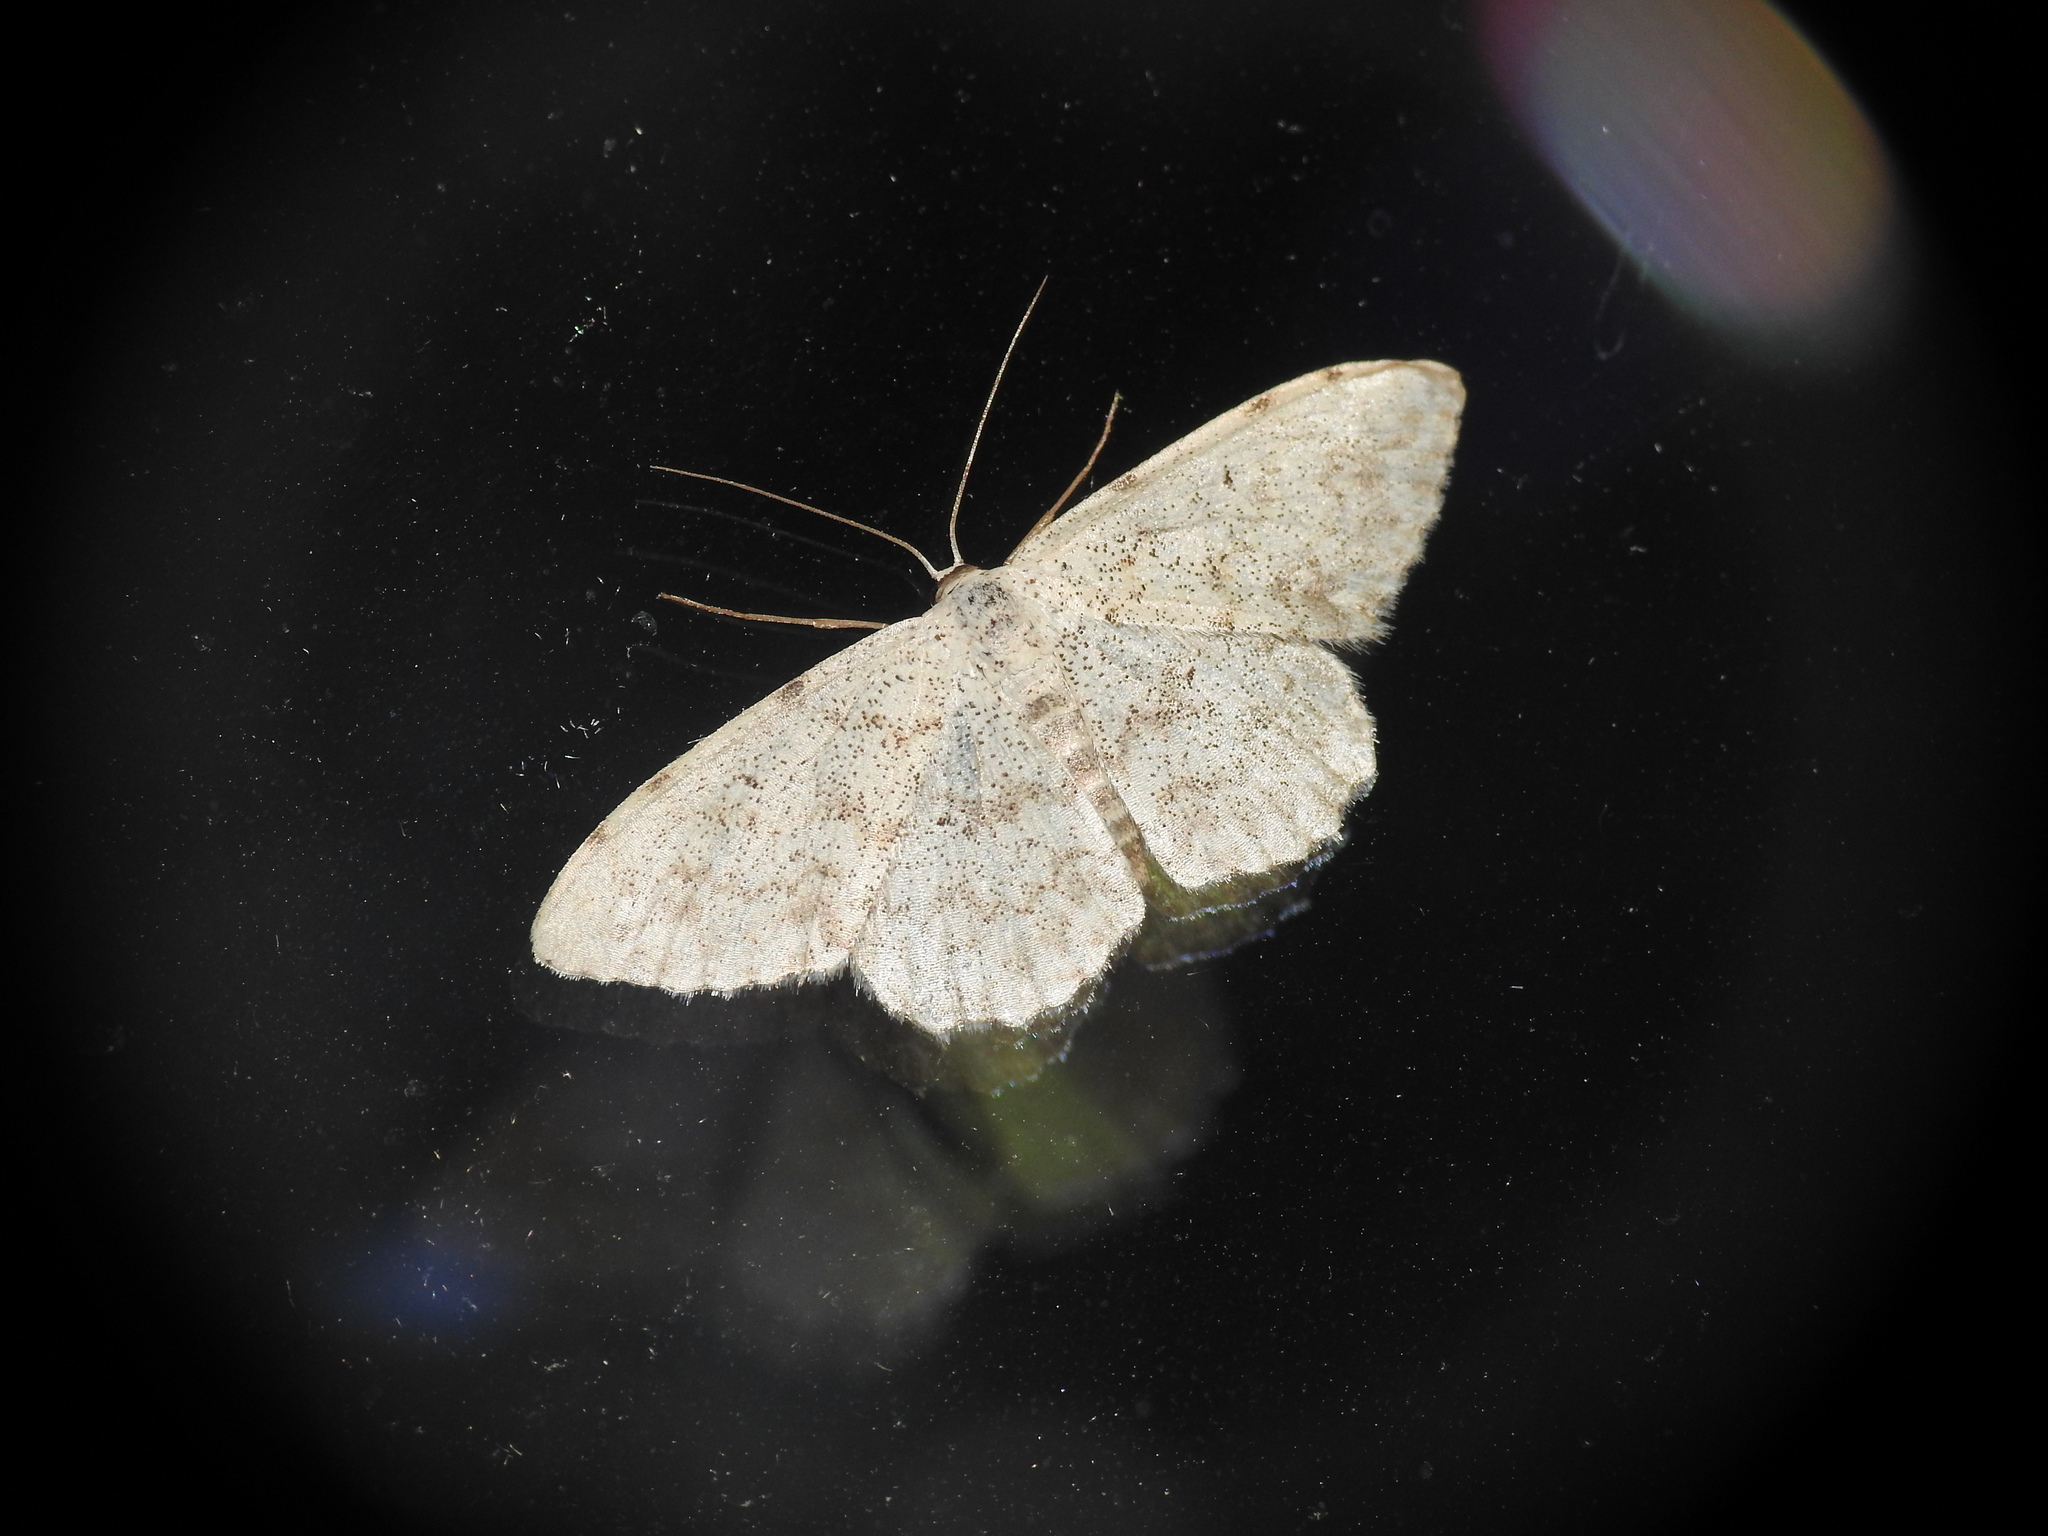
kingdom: Animalia
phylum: Arthropoda
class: Insecta
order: Lepidoptera
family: Geometridae
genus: Scopula
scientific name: Scopula marginepunctata
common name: Mullein wave
